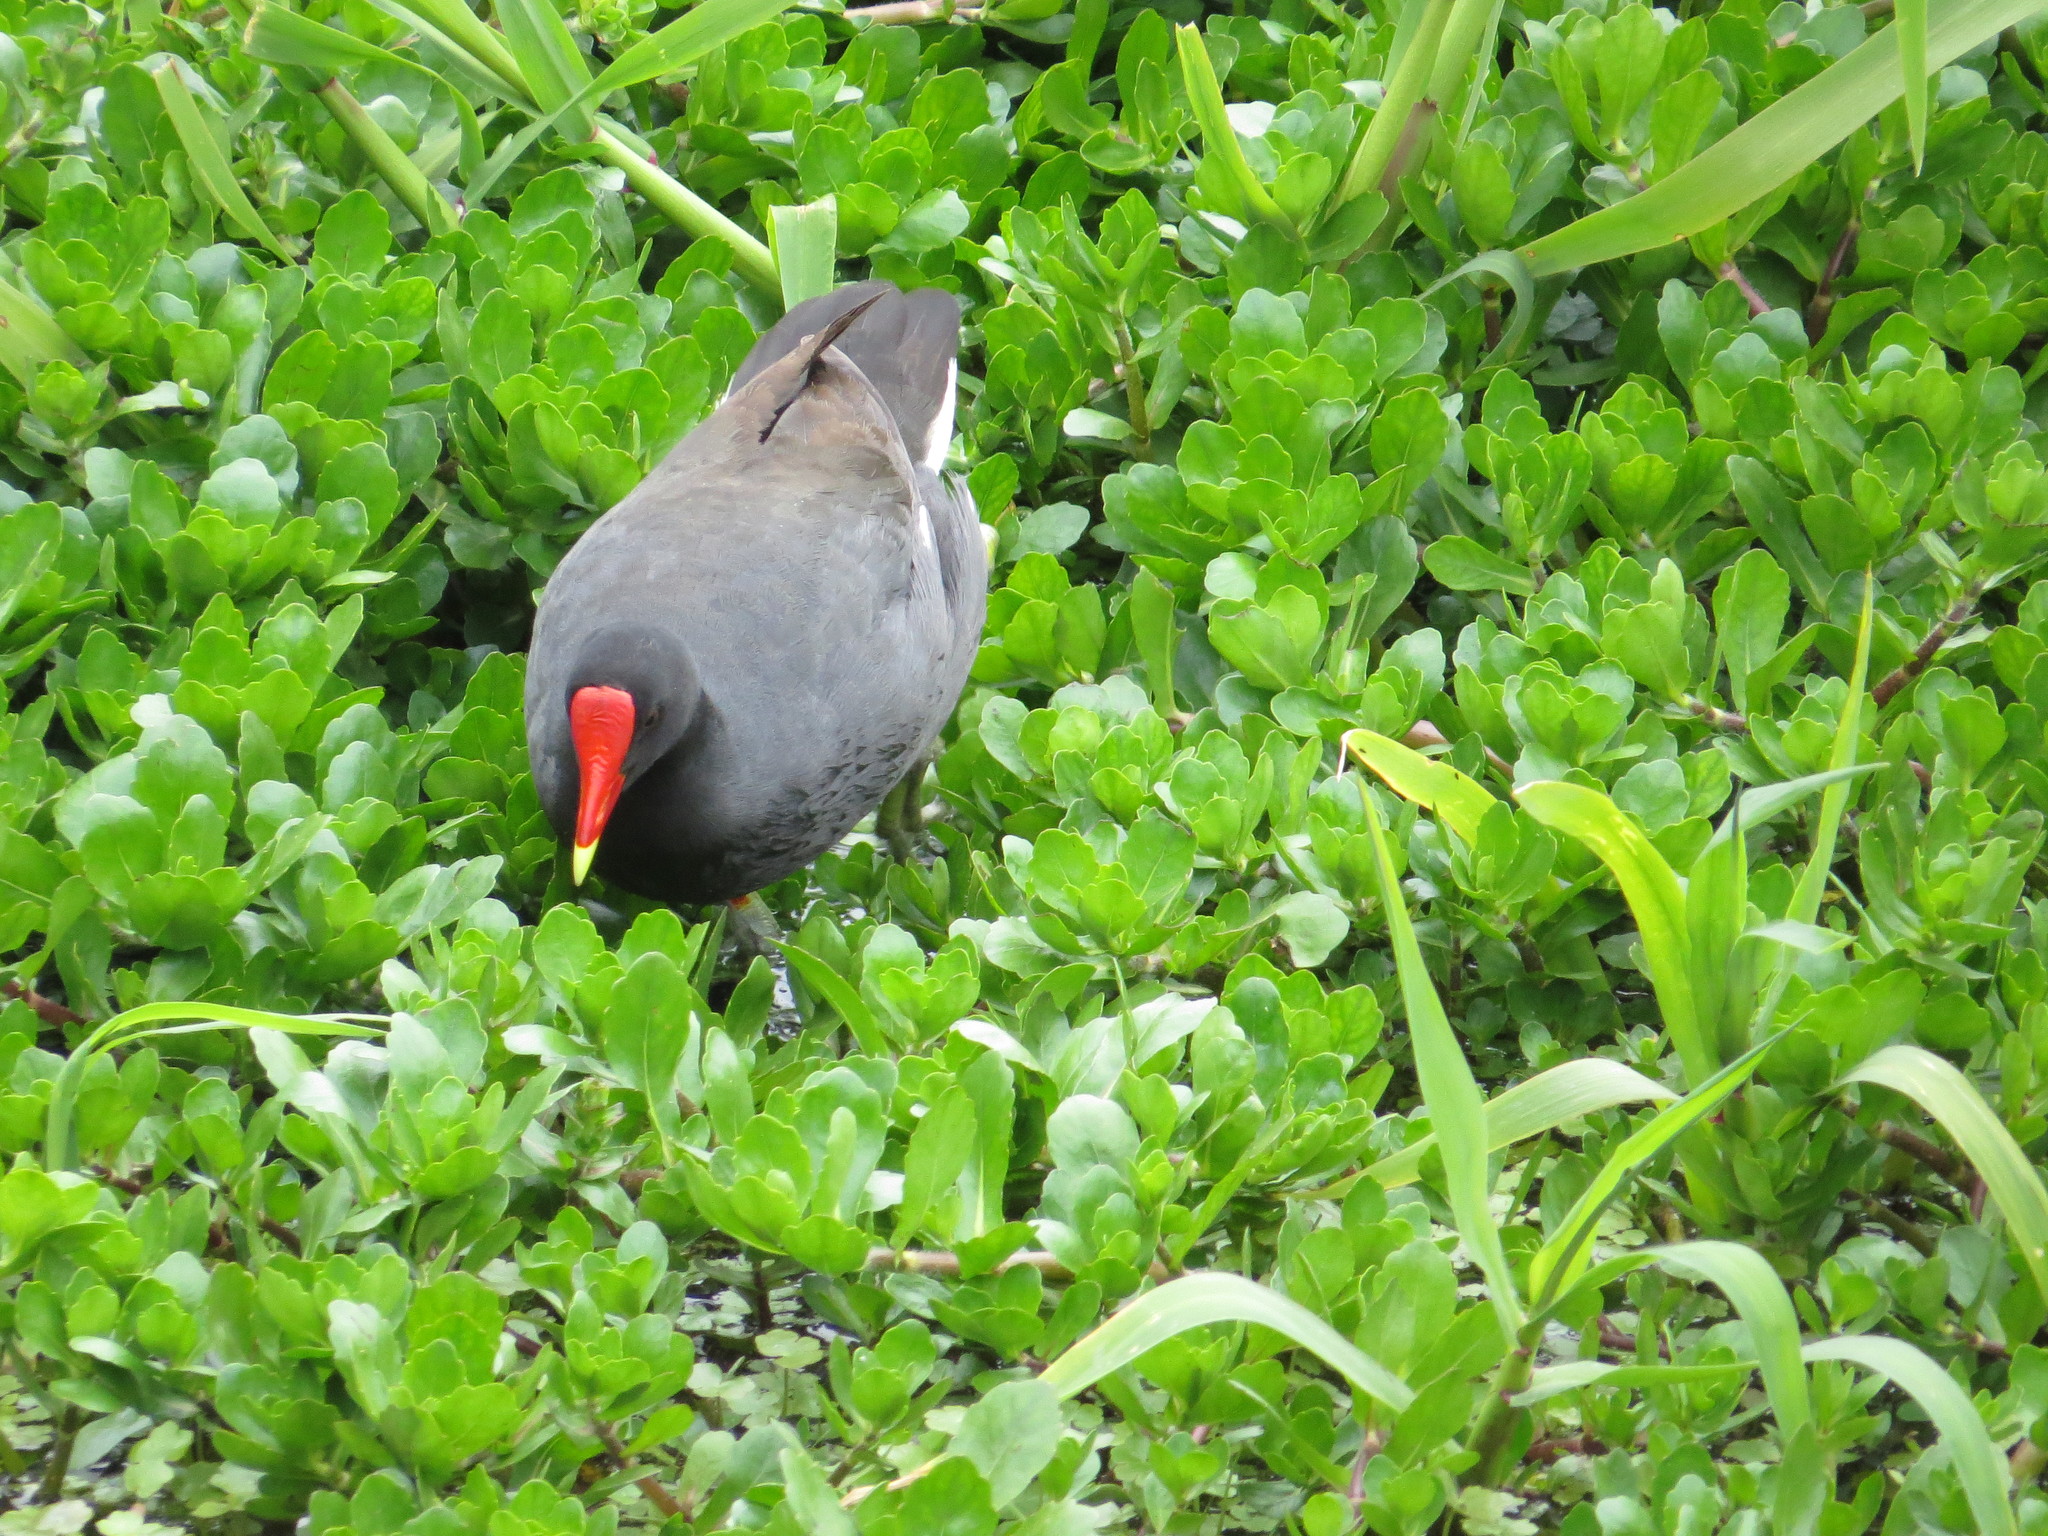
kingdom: Animalia
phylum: Chordata
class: Aves
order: Gruiformes
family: Rallidae
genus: Gallinula
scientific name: Gallinula chloropus
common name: Common moorhen
